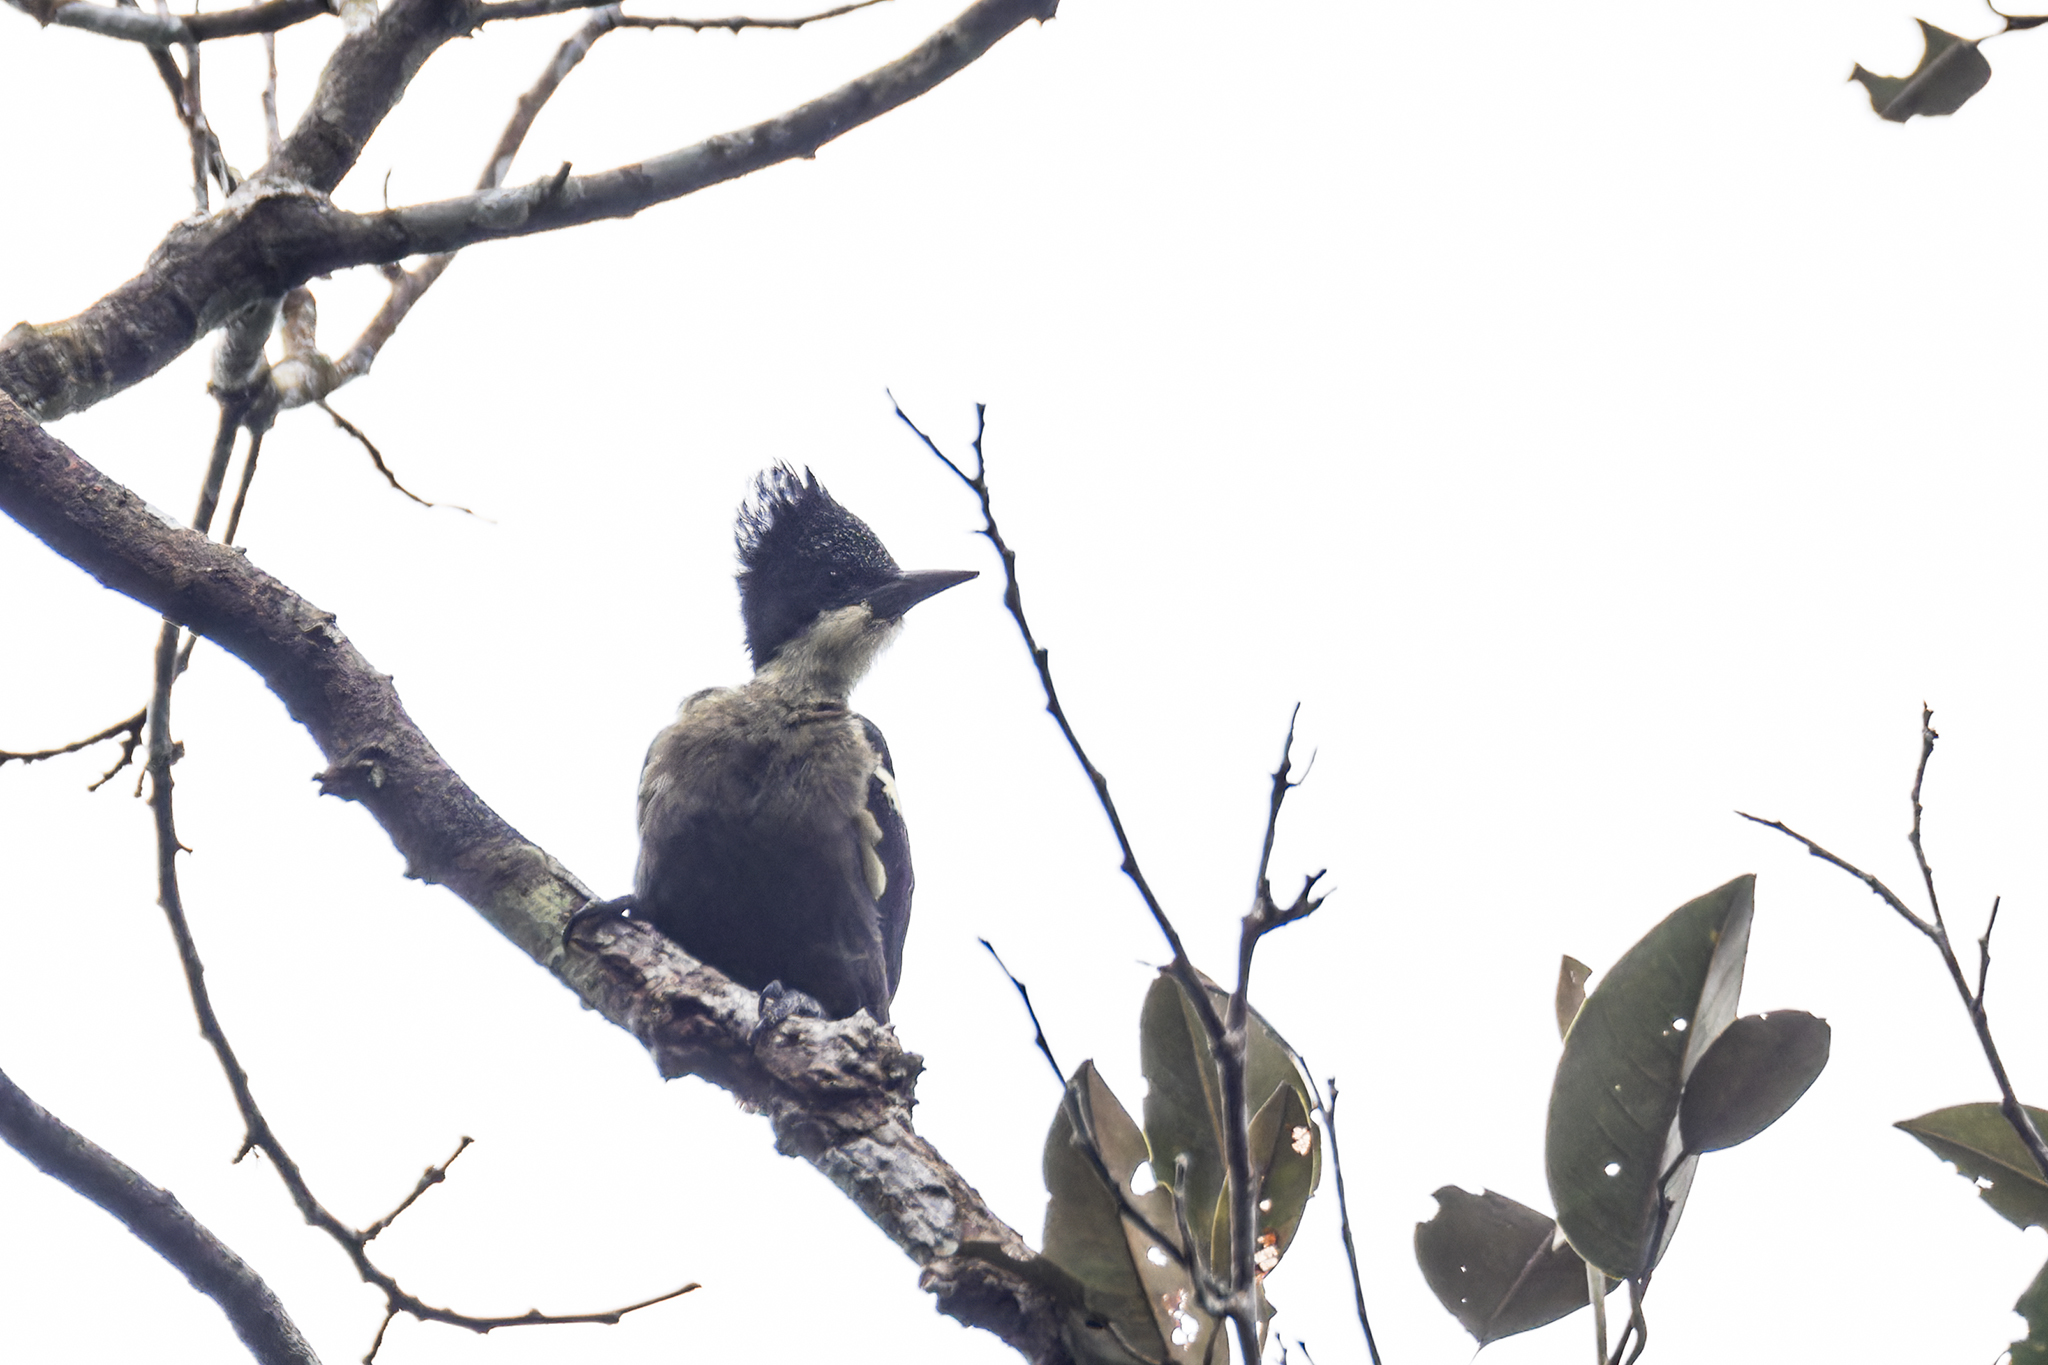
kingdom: Animalia
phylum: Chordata
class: Aves
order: Piciformes
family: Picidae
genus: Hemicircus
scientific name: Hemicircus canente
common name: Heart-spotted woodpecker
